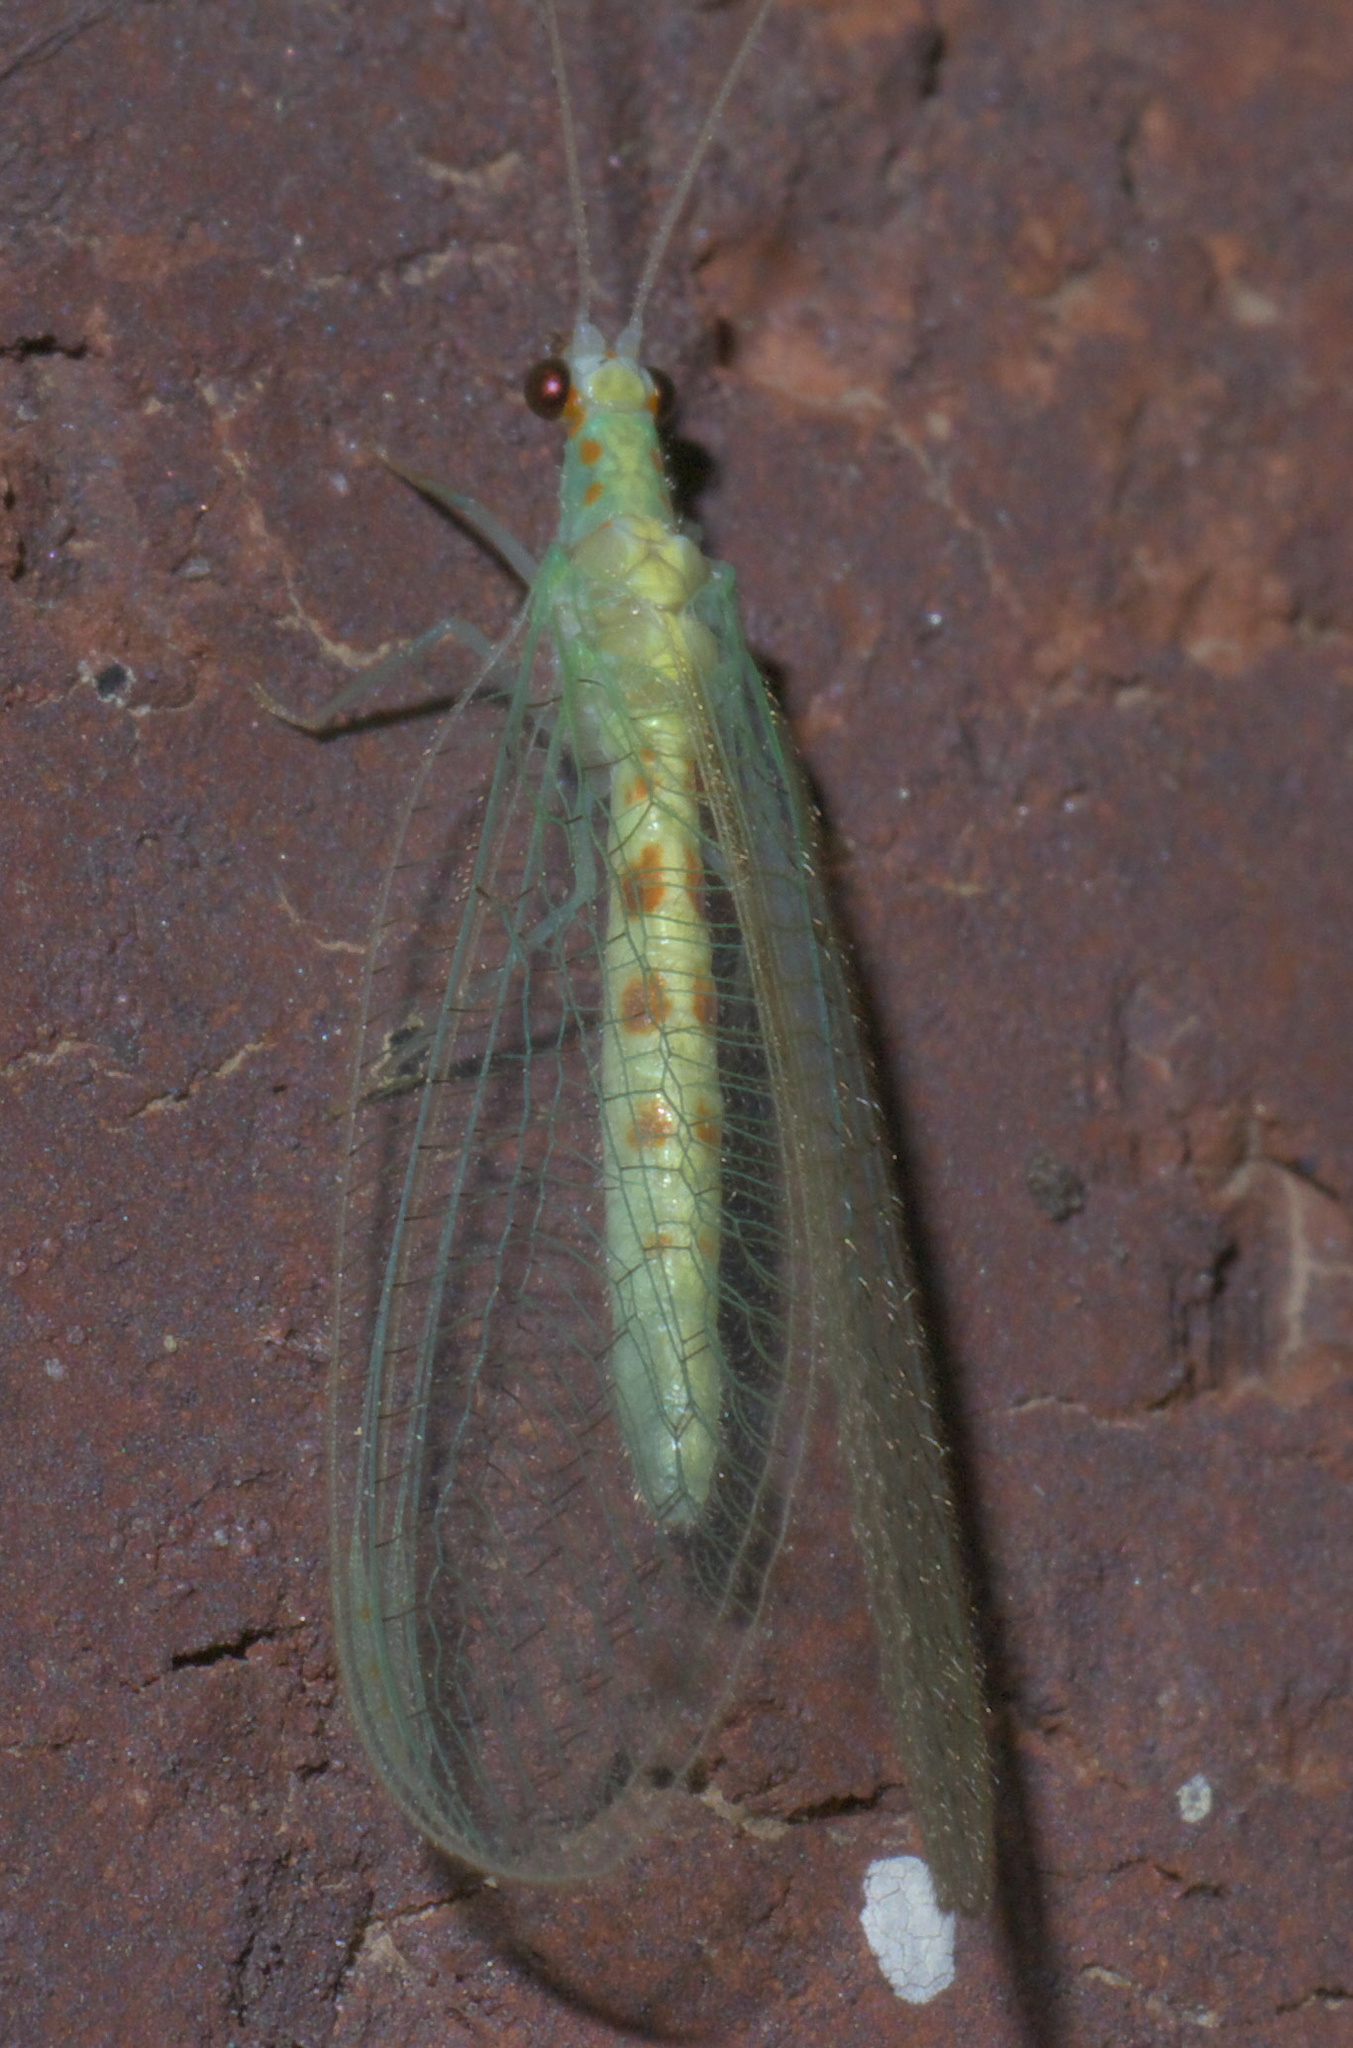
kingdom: Animalia
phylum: Arthropoda
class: Insecta
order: Neuroptera
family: Chrysopidae
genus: Chrysopa
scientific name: Chrysopa quadripunctata
